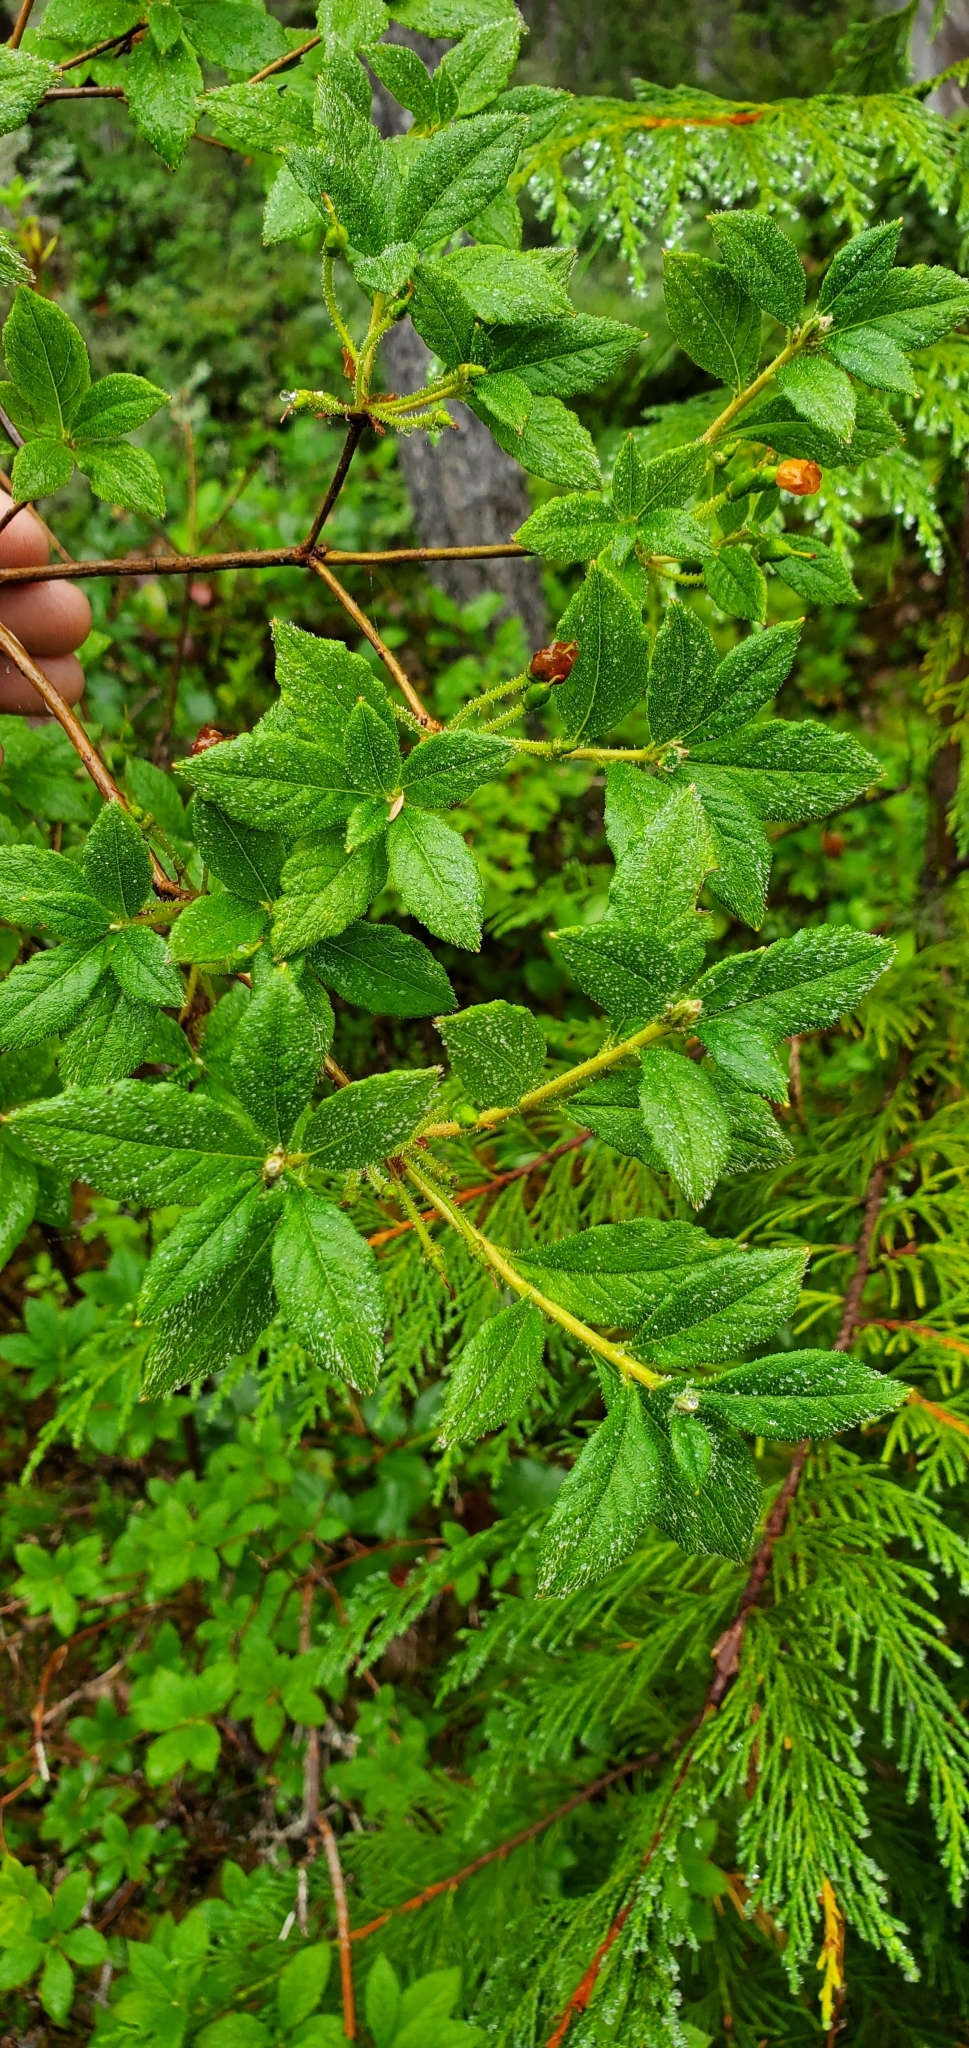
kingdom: Plantae
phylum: Tracheophyta
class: Magnoliopsida
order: Ericales
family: Ericaceae
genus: Rhododendron
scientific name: Rhododendron menziesii
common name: Pacific menziesia
